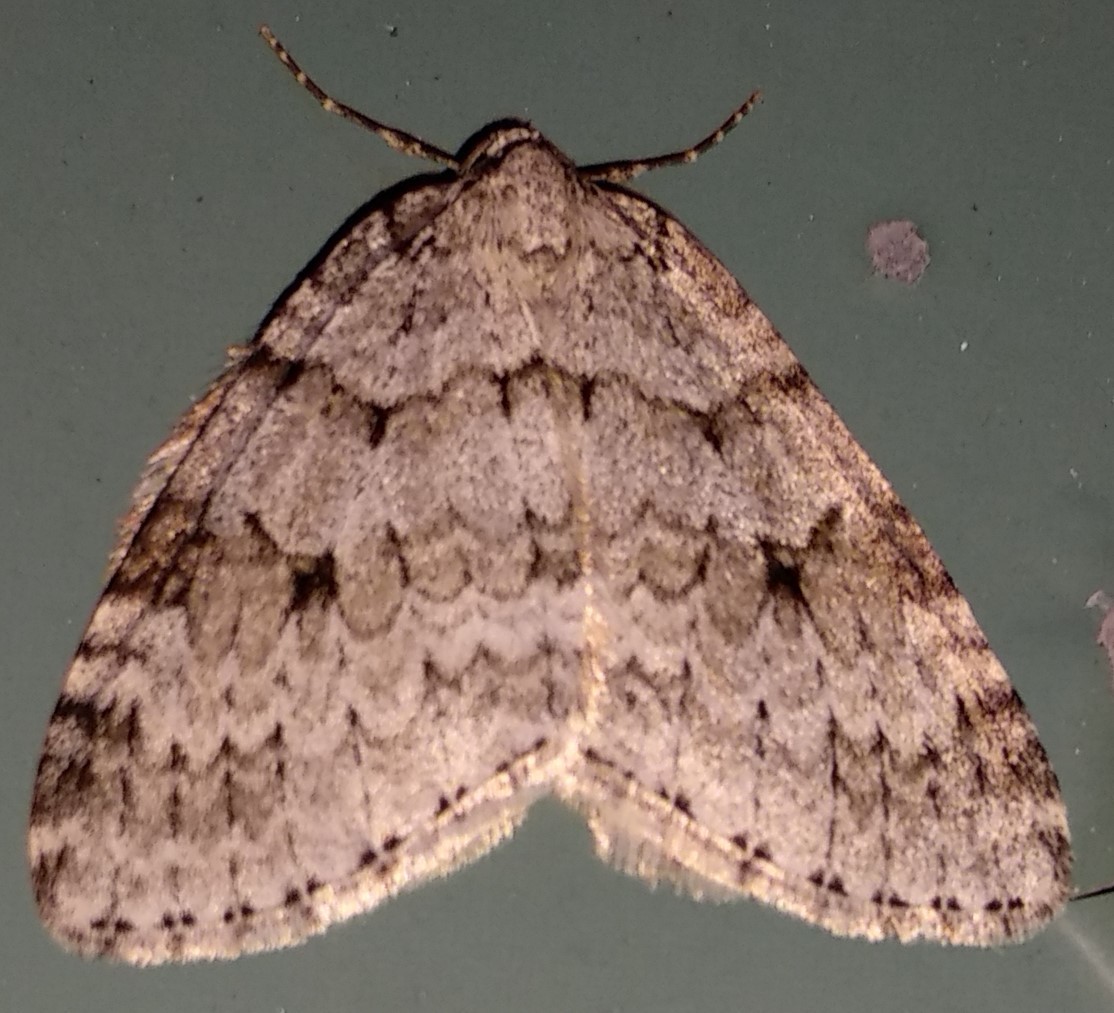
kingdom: Animalia
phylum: Arthropoda
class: Insecta
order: Lepidoptera
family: Geometridae
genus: Epirrita
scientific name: Epirrita autumnata
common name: Autumnal moth
